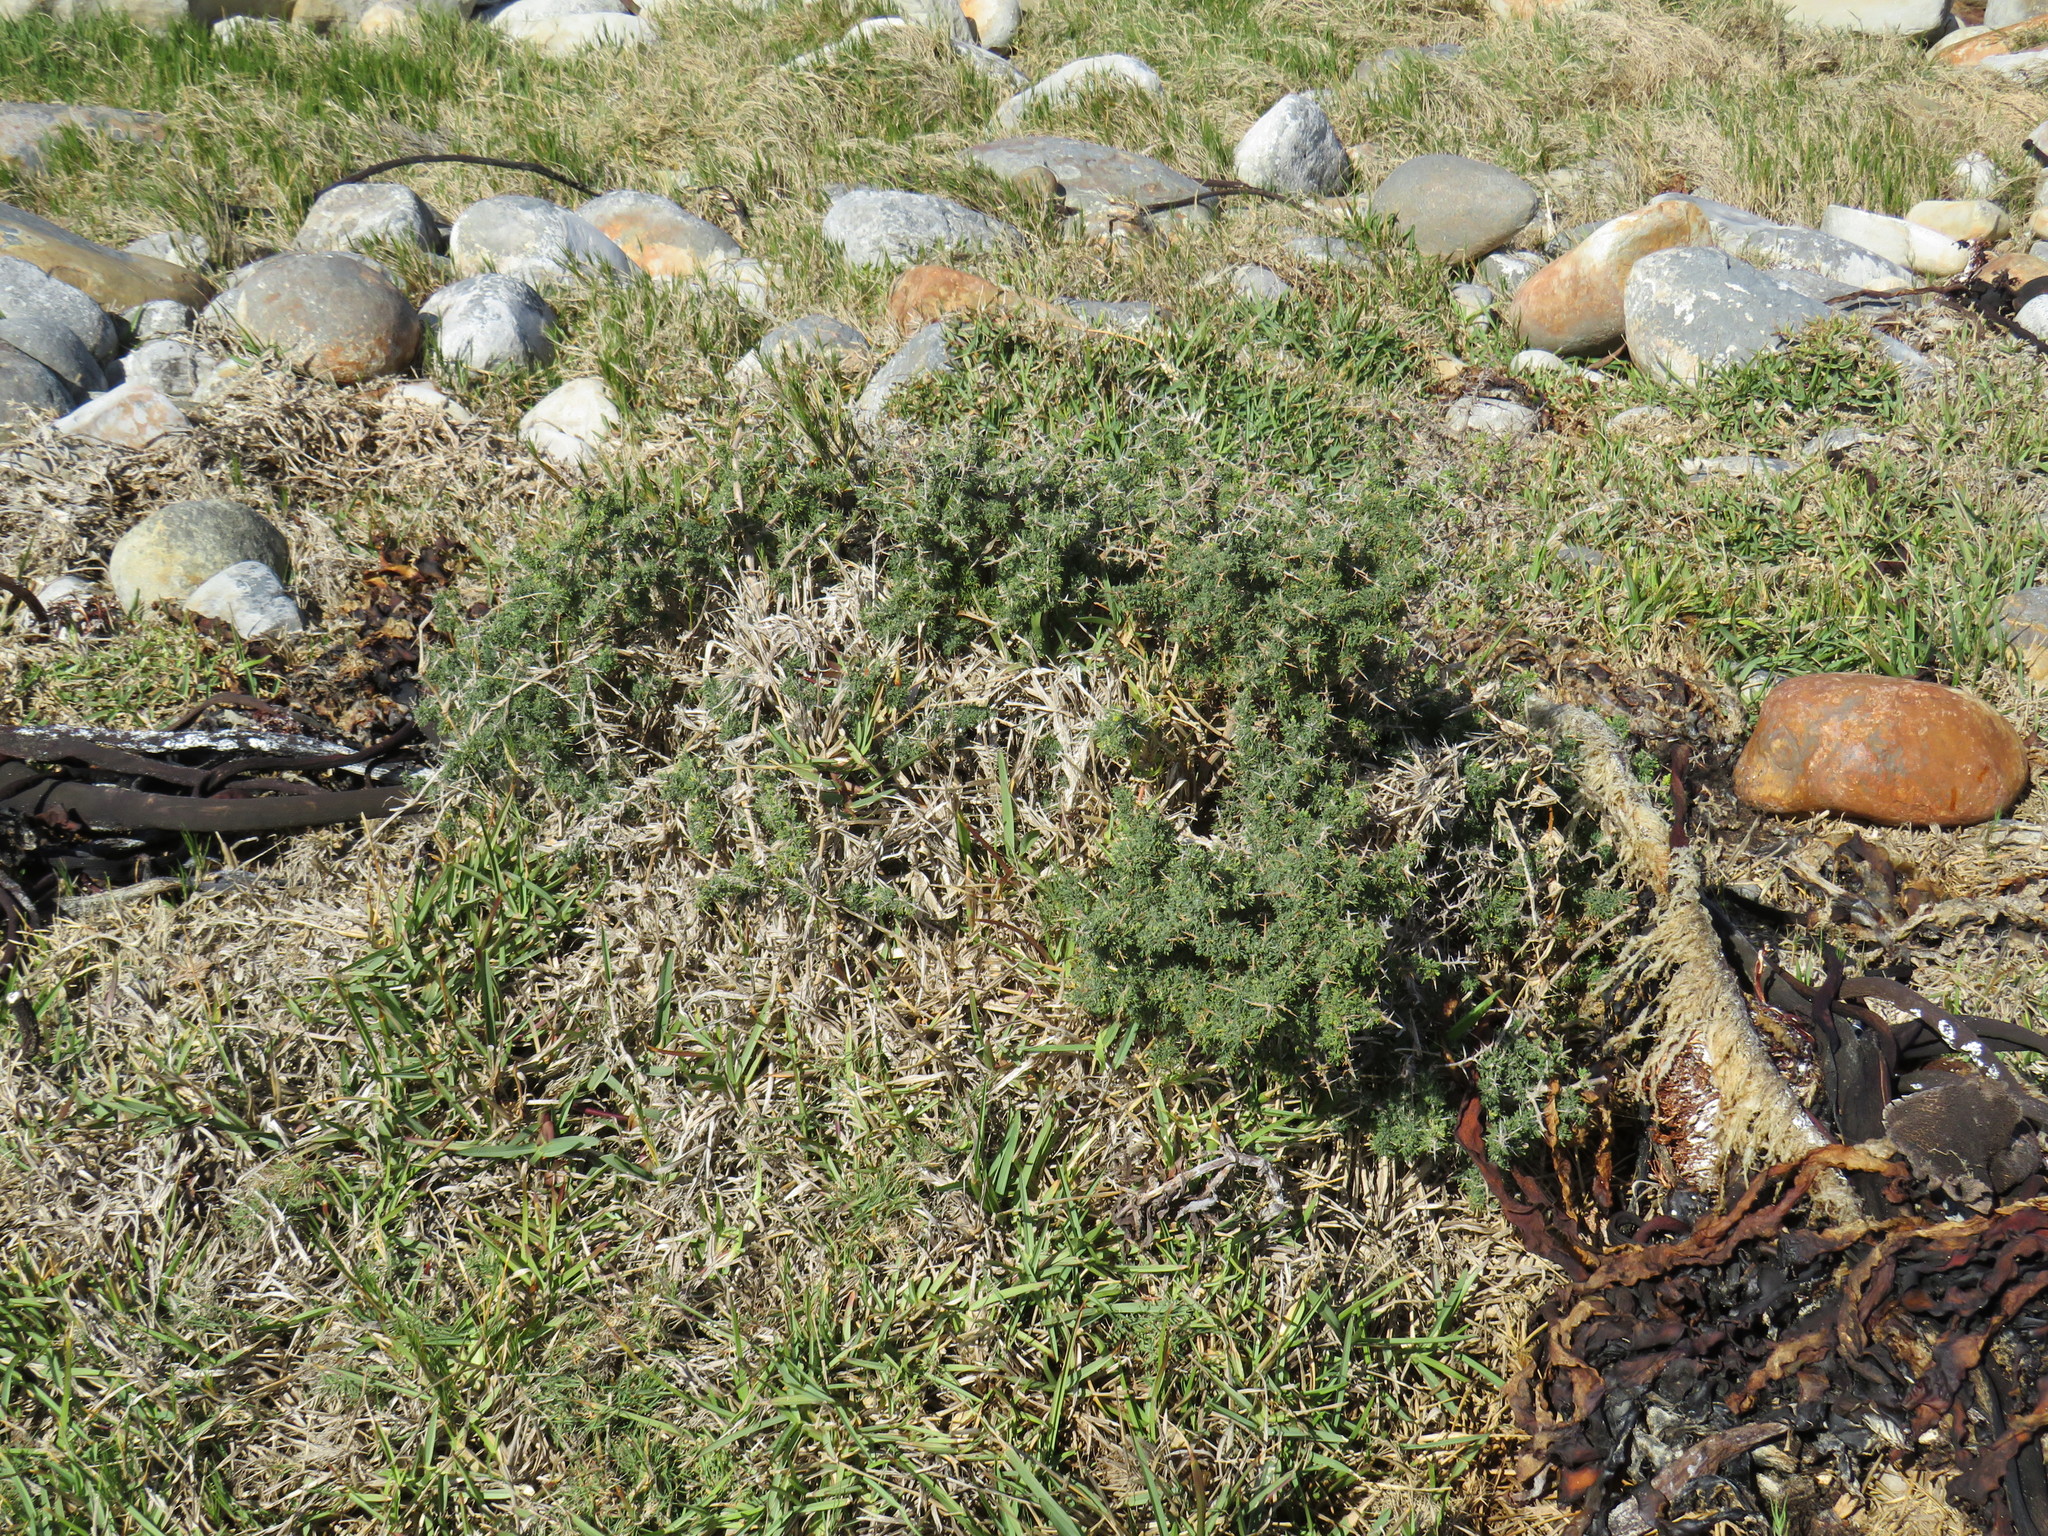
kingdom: Plantae
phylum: Tracheophyta
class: Liliopsida
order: Asparagales
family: Asparagaceae
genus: Asparagus
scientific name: Asparagus capensis
